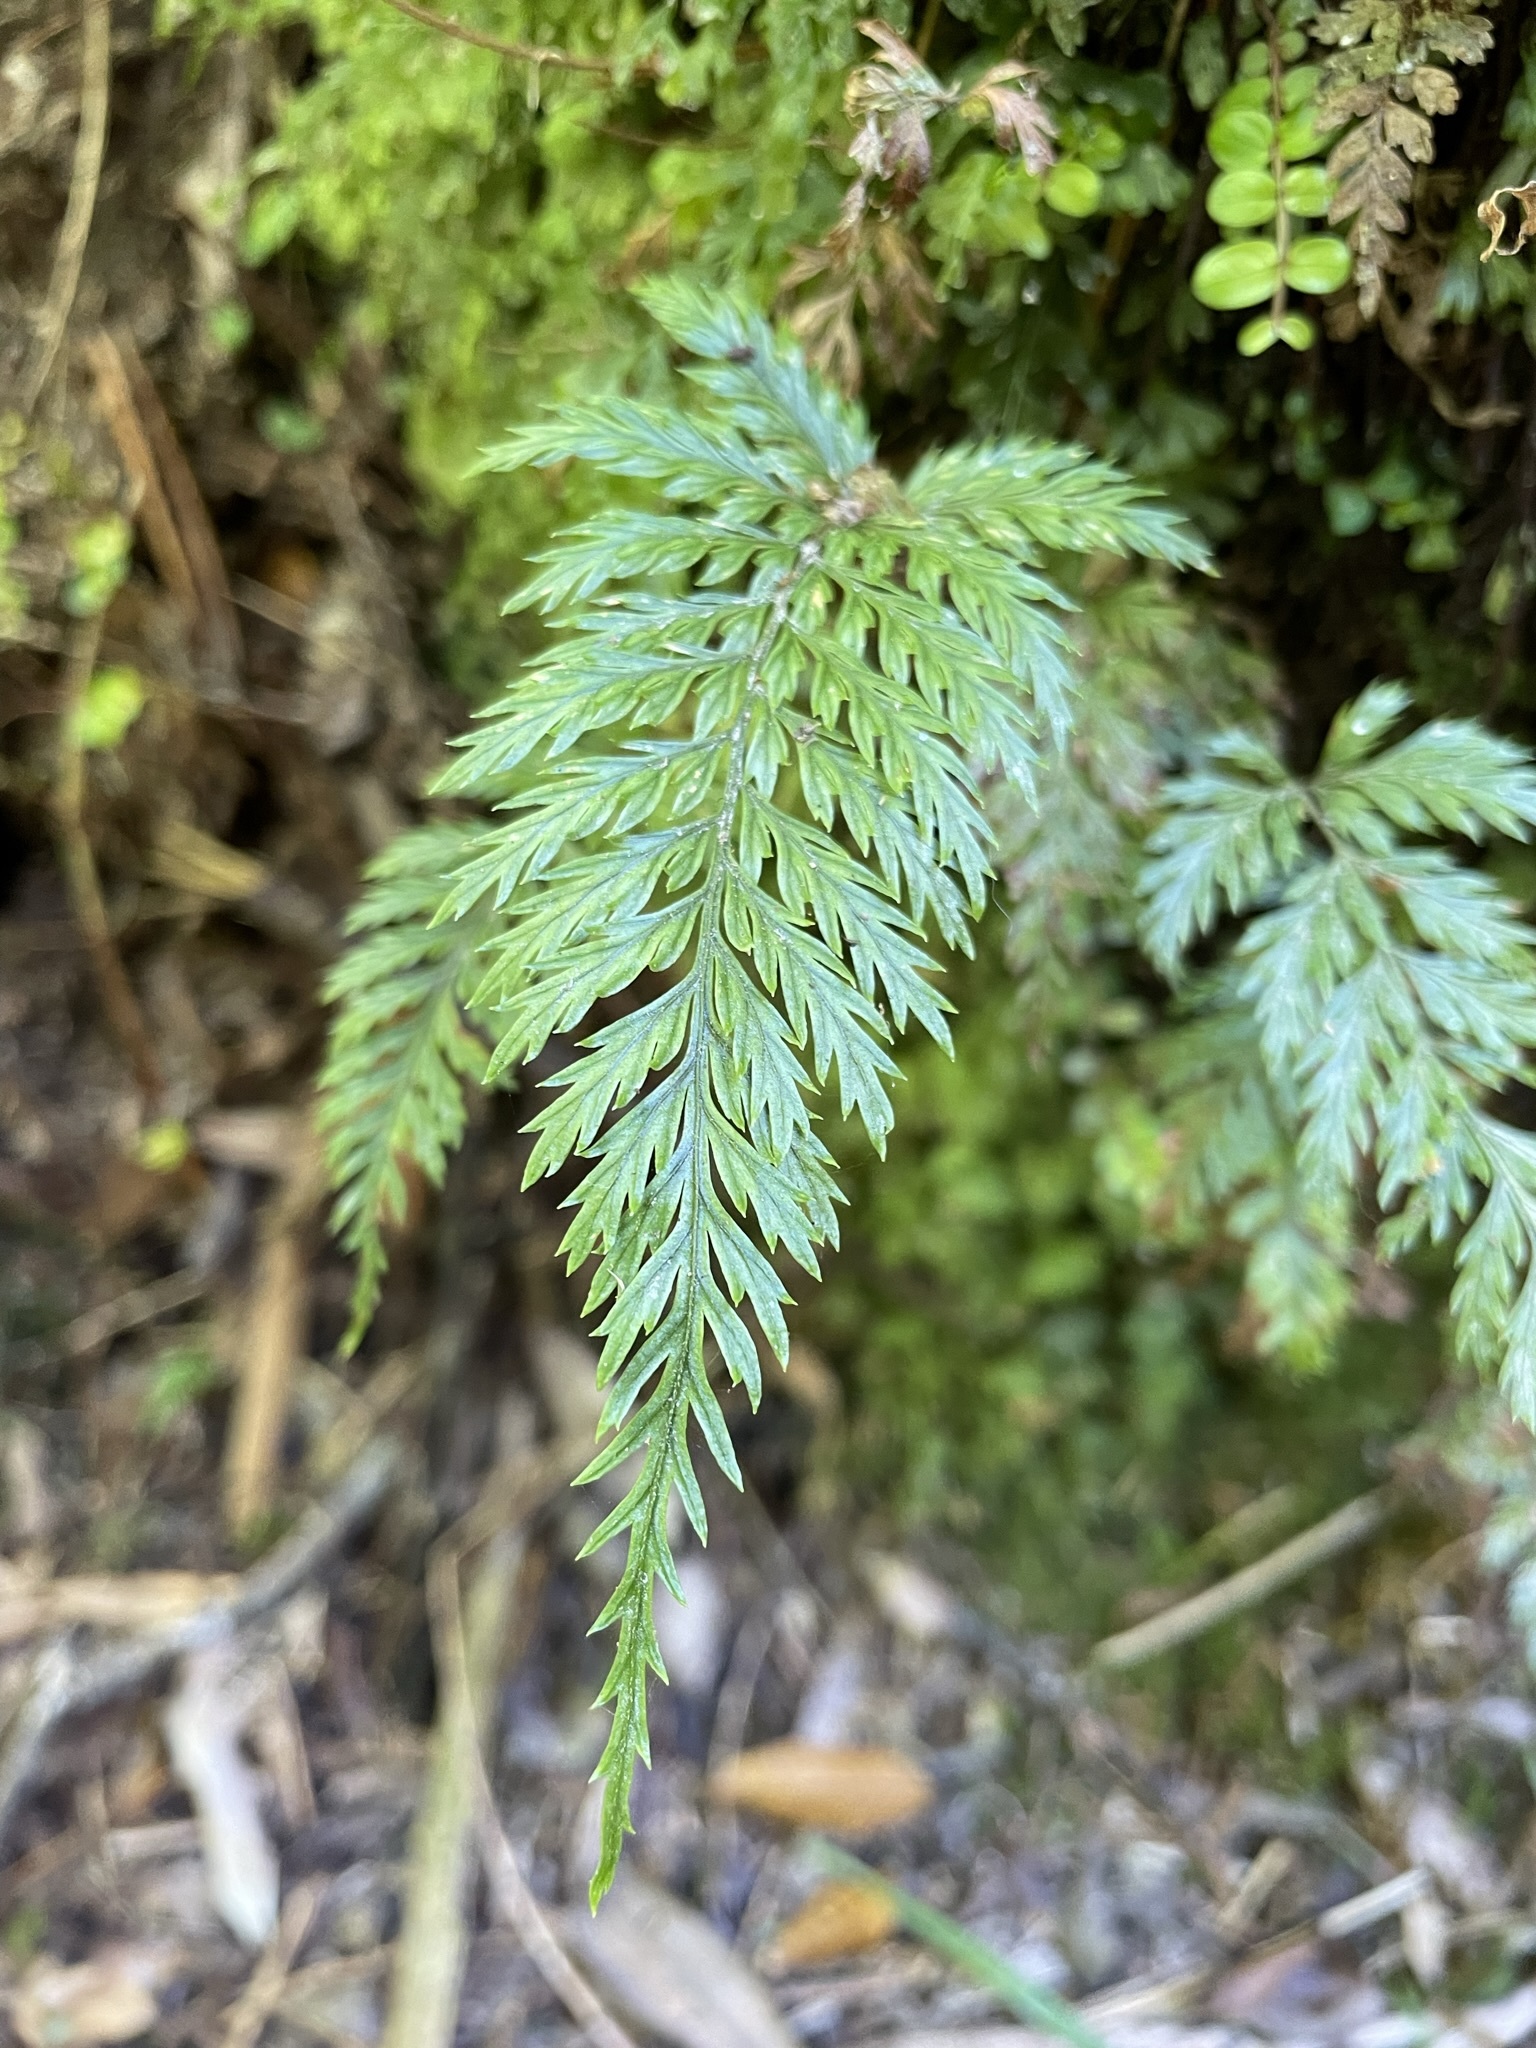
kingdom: Plantae
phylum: Tracheophyta
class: Polypodiopsida
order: Polypodiales
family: Dryopteridaceae
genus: Lastreopsis
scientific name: Lastreopsis hispida
